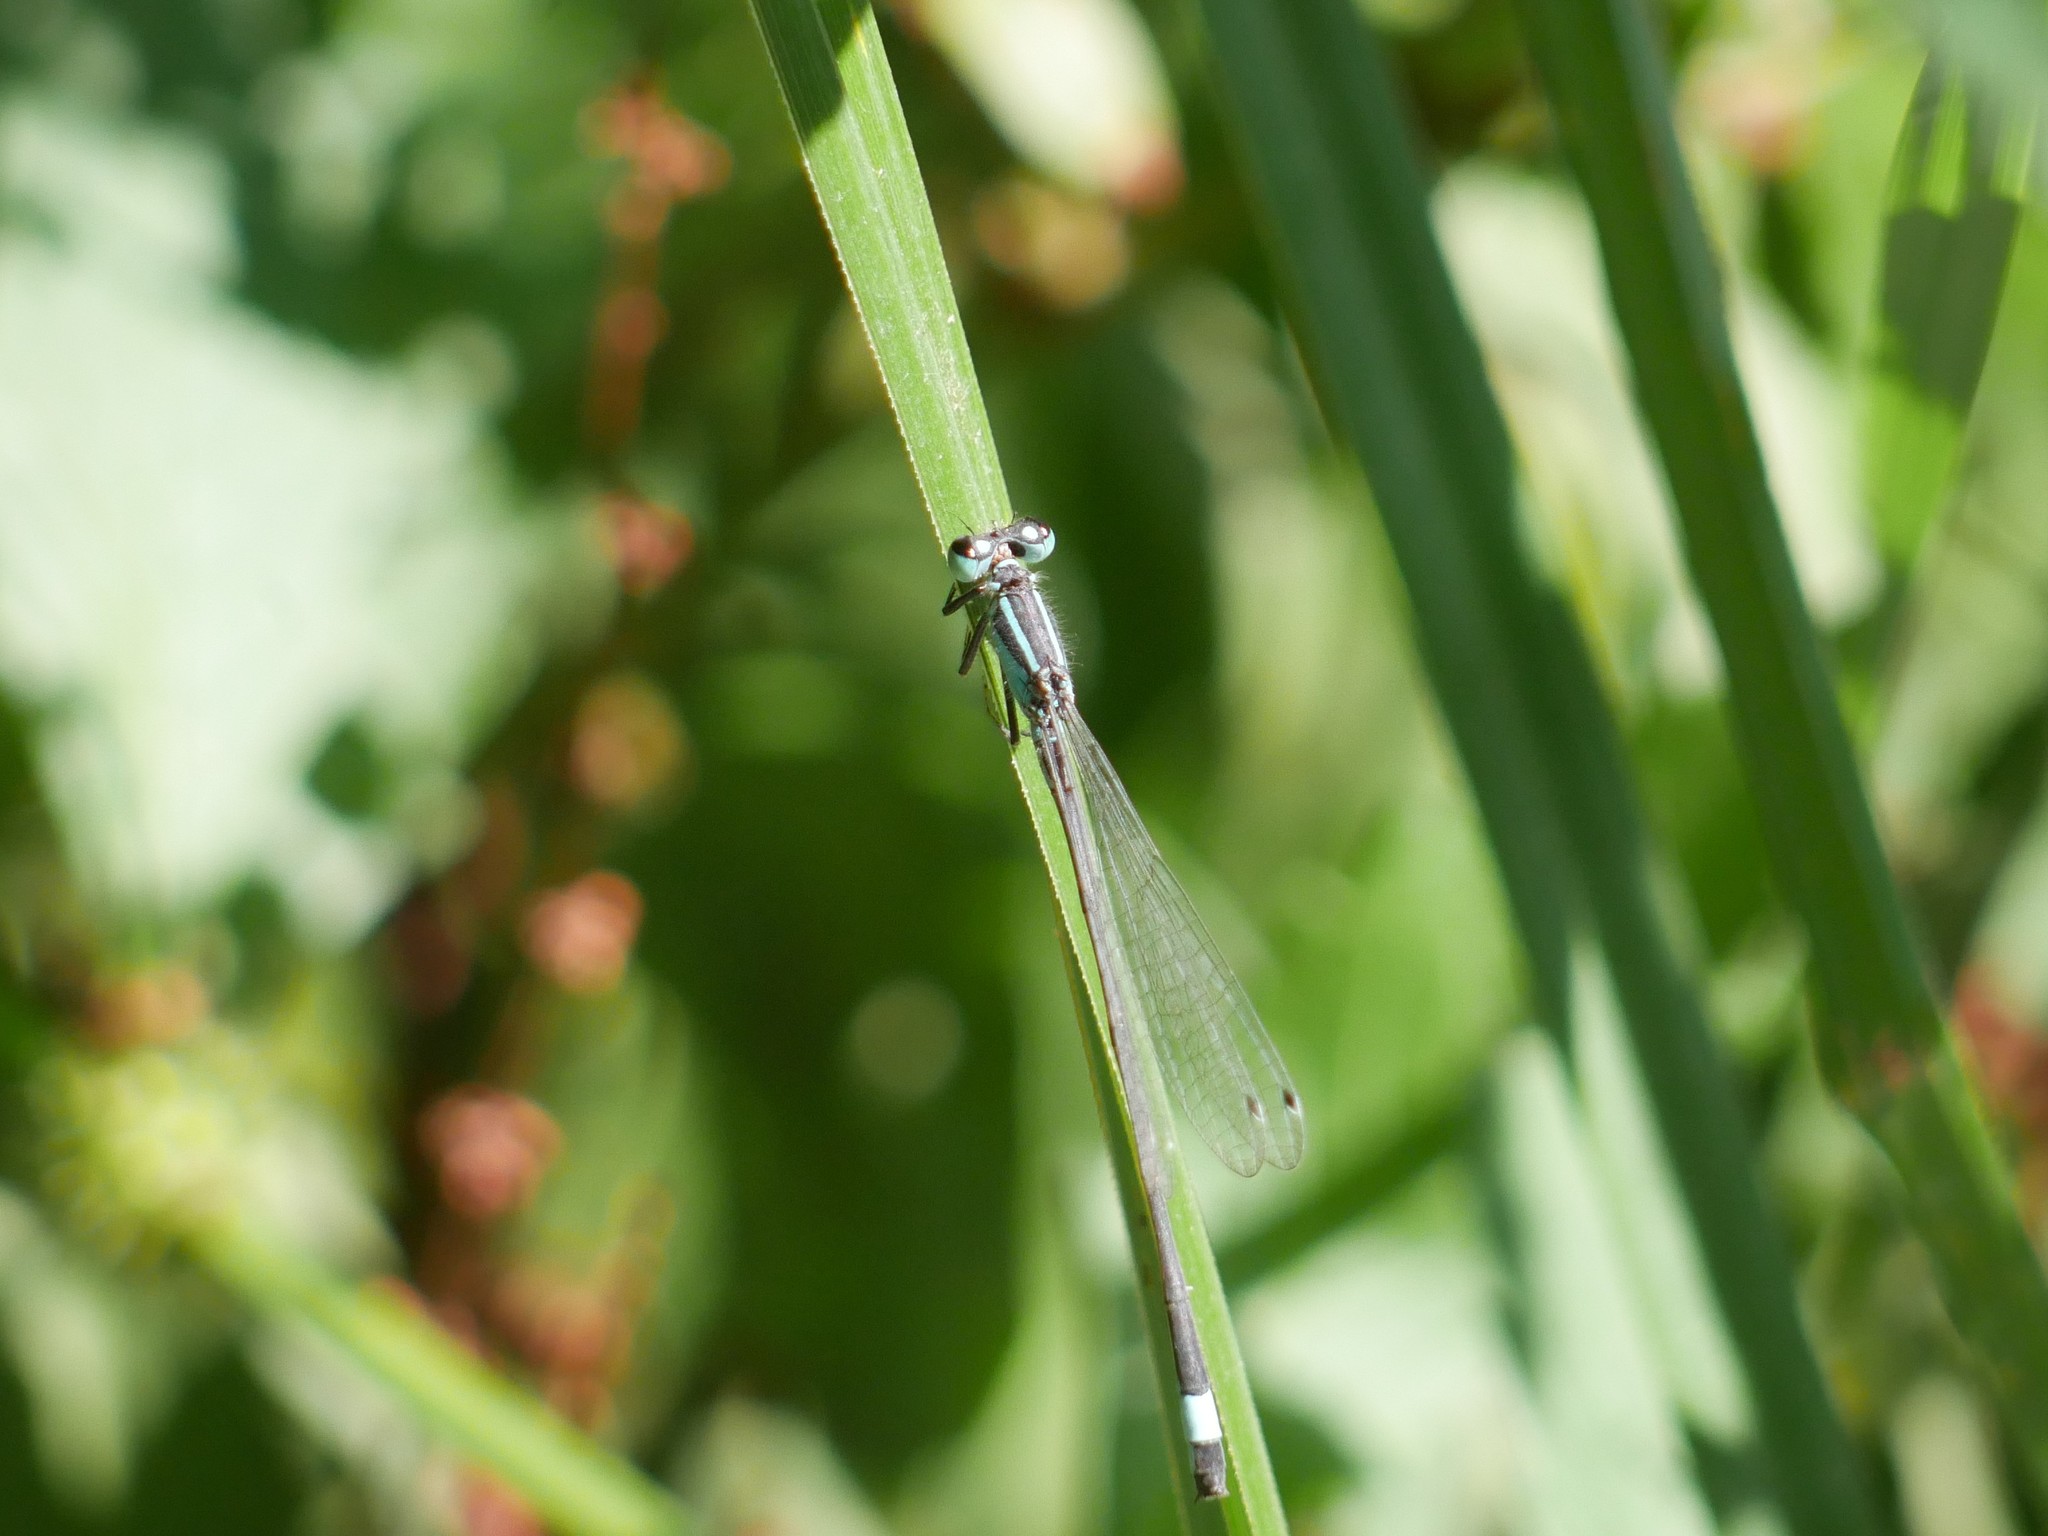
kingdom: Animalia
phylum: Arthropoda
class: Insecta
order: Odonata
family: Coenagrionidae
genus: Ischnura
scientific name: Ischnura elegans
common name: Blue-tailed damselfly
